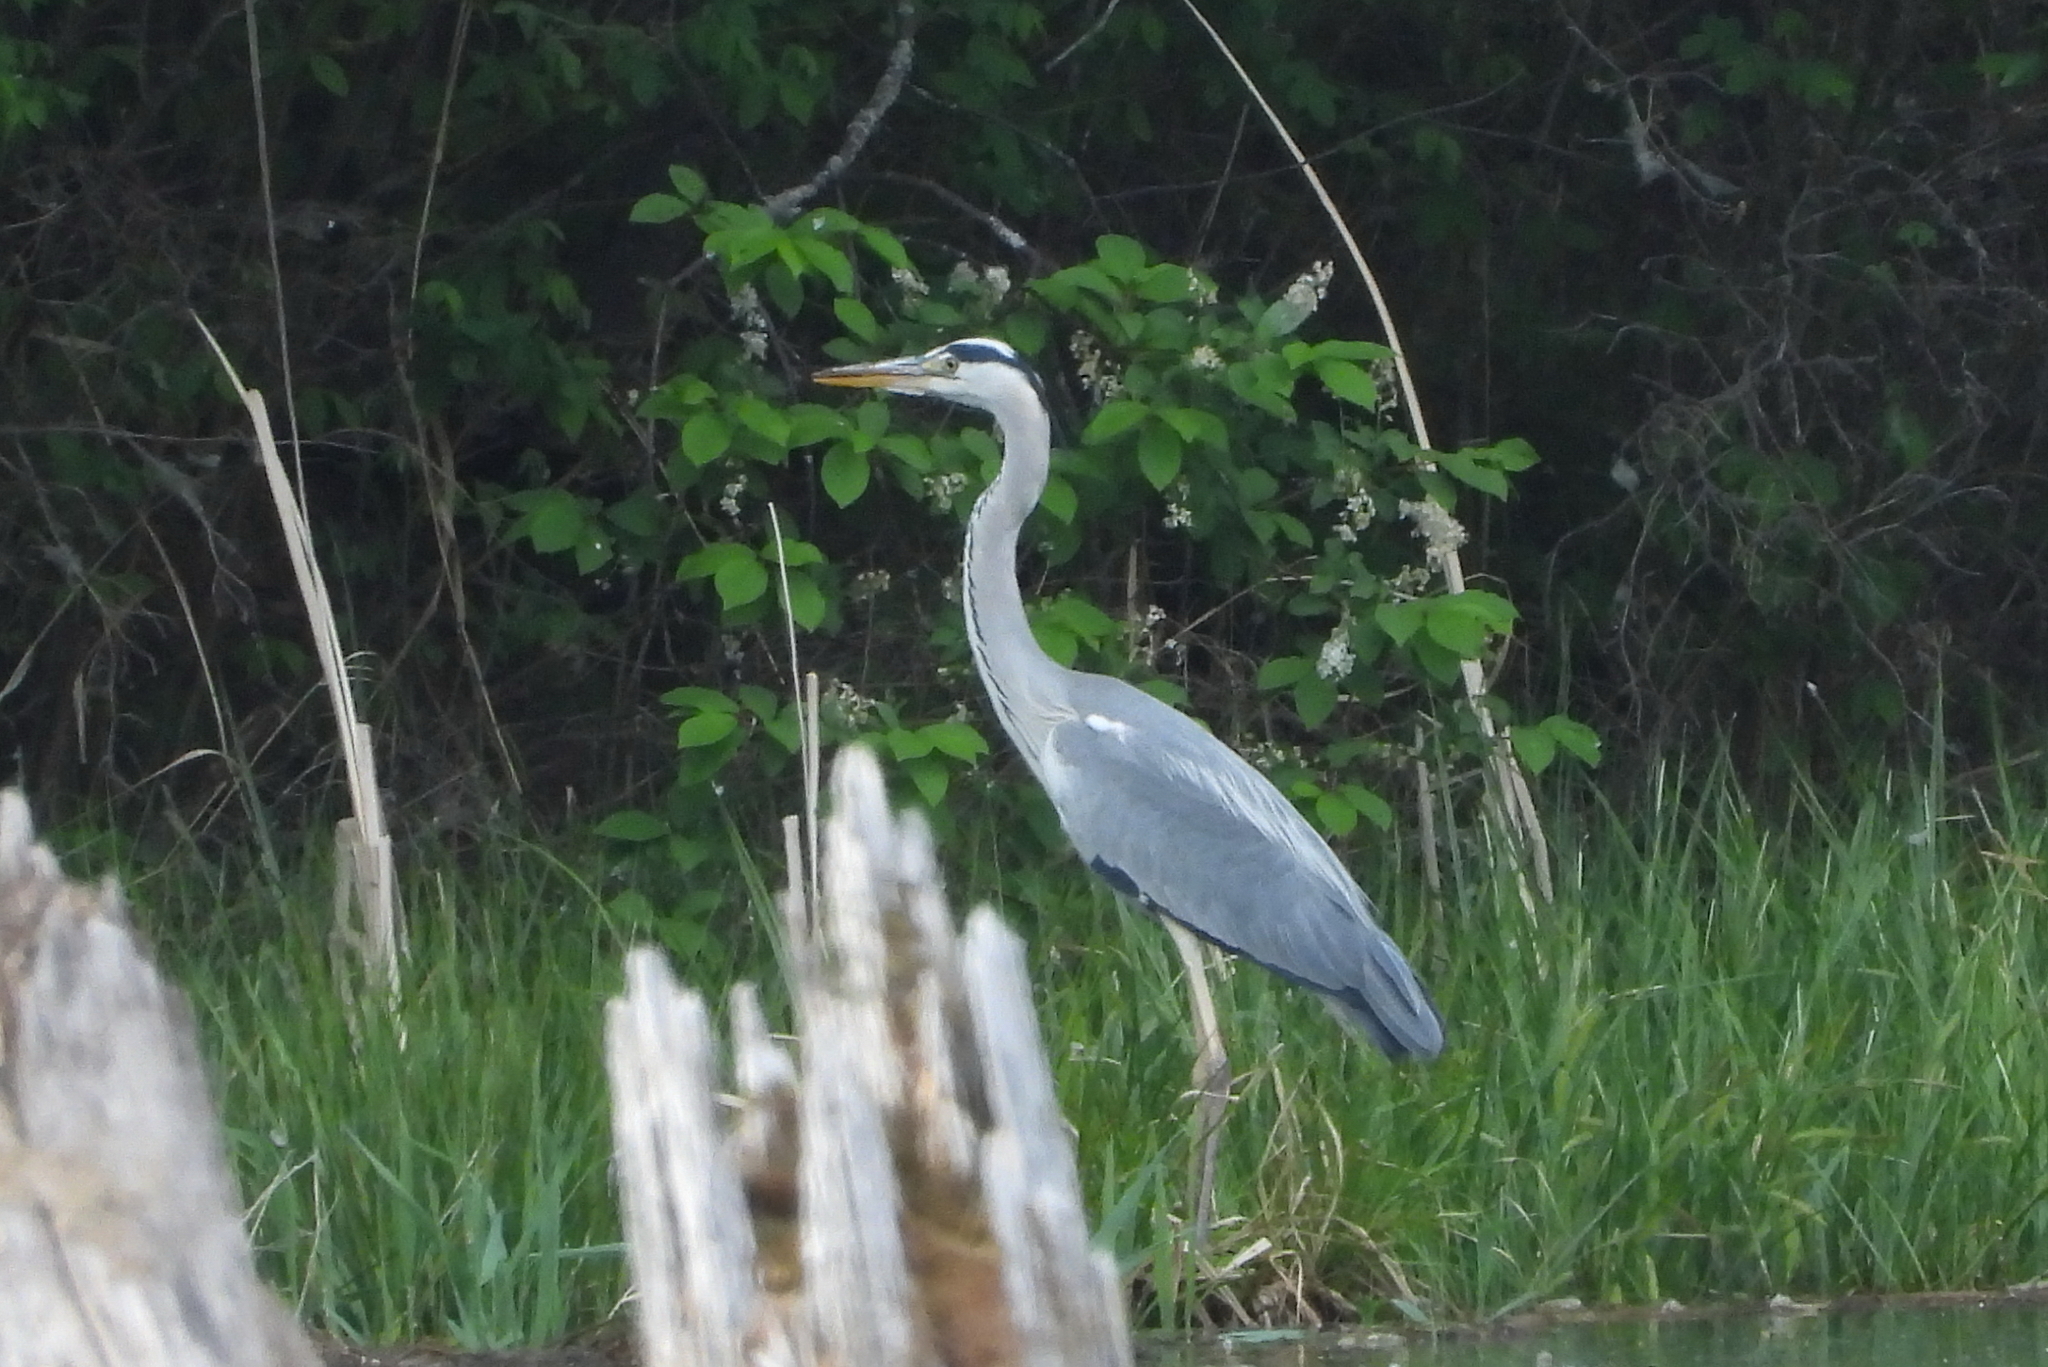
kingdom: Animalia
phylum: Chordata
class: Aves
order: Pelecaniformes
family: Ardeidae
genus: Ardea
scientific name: Ardea cinerea
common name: Grey heron
